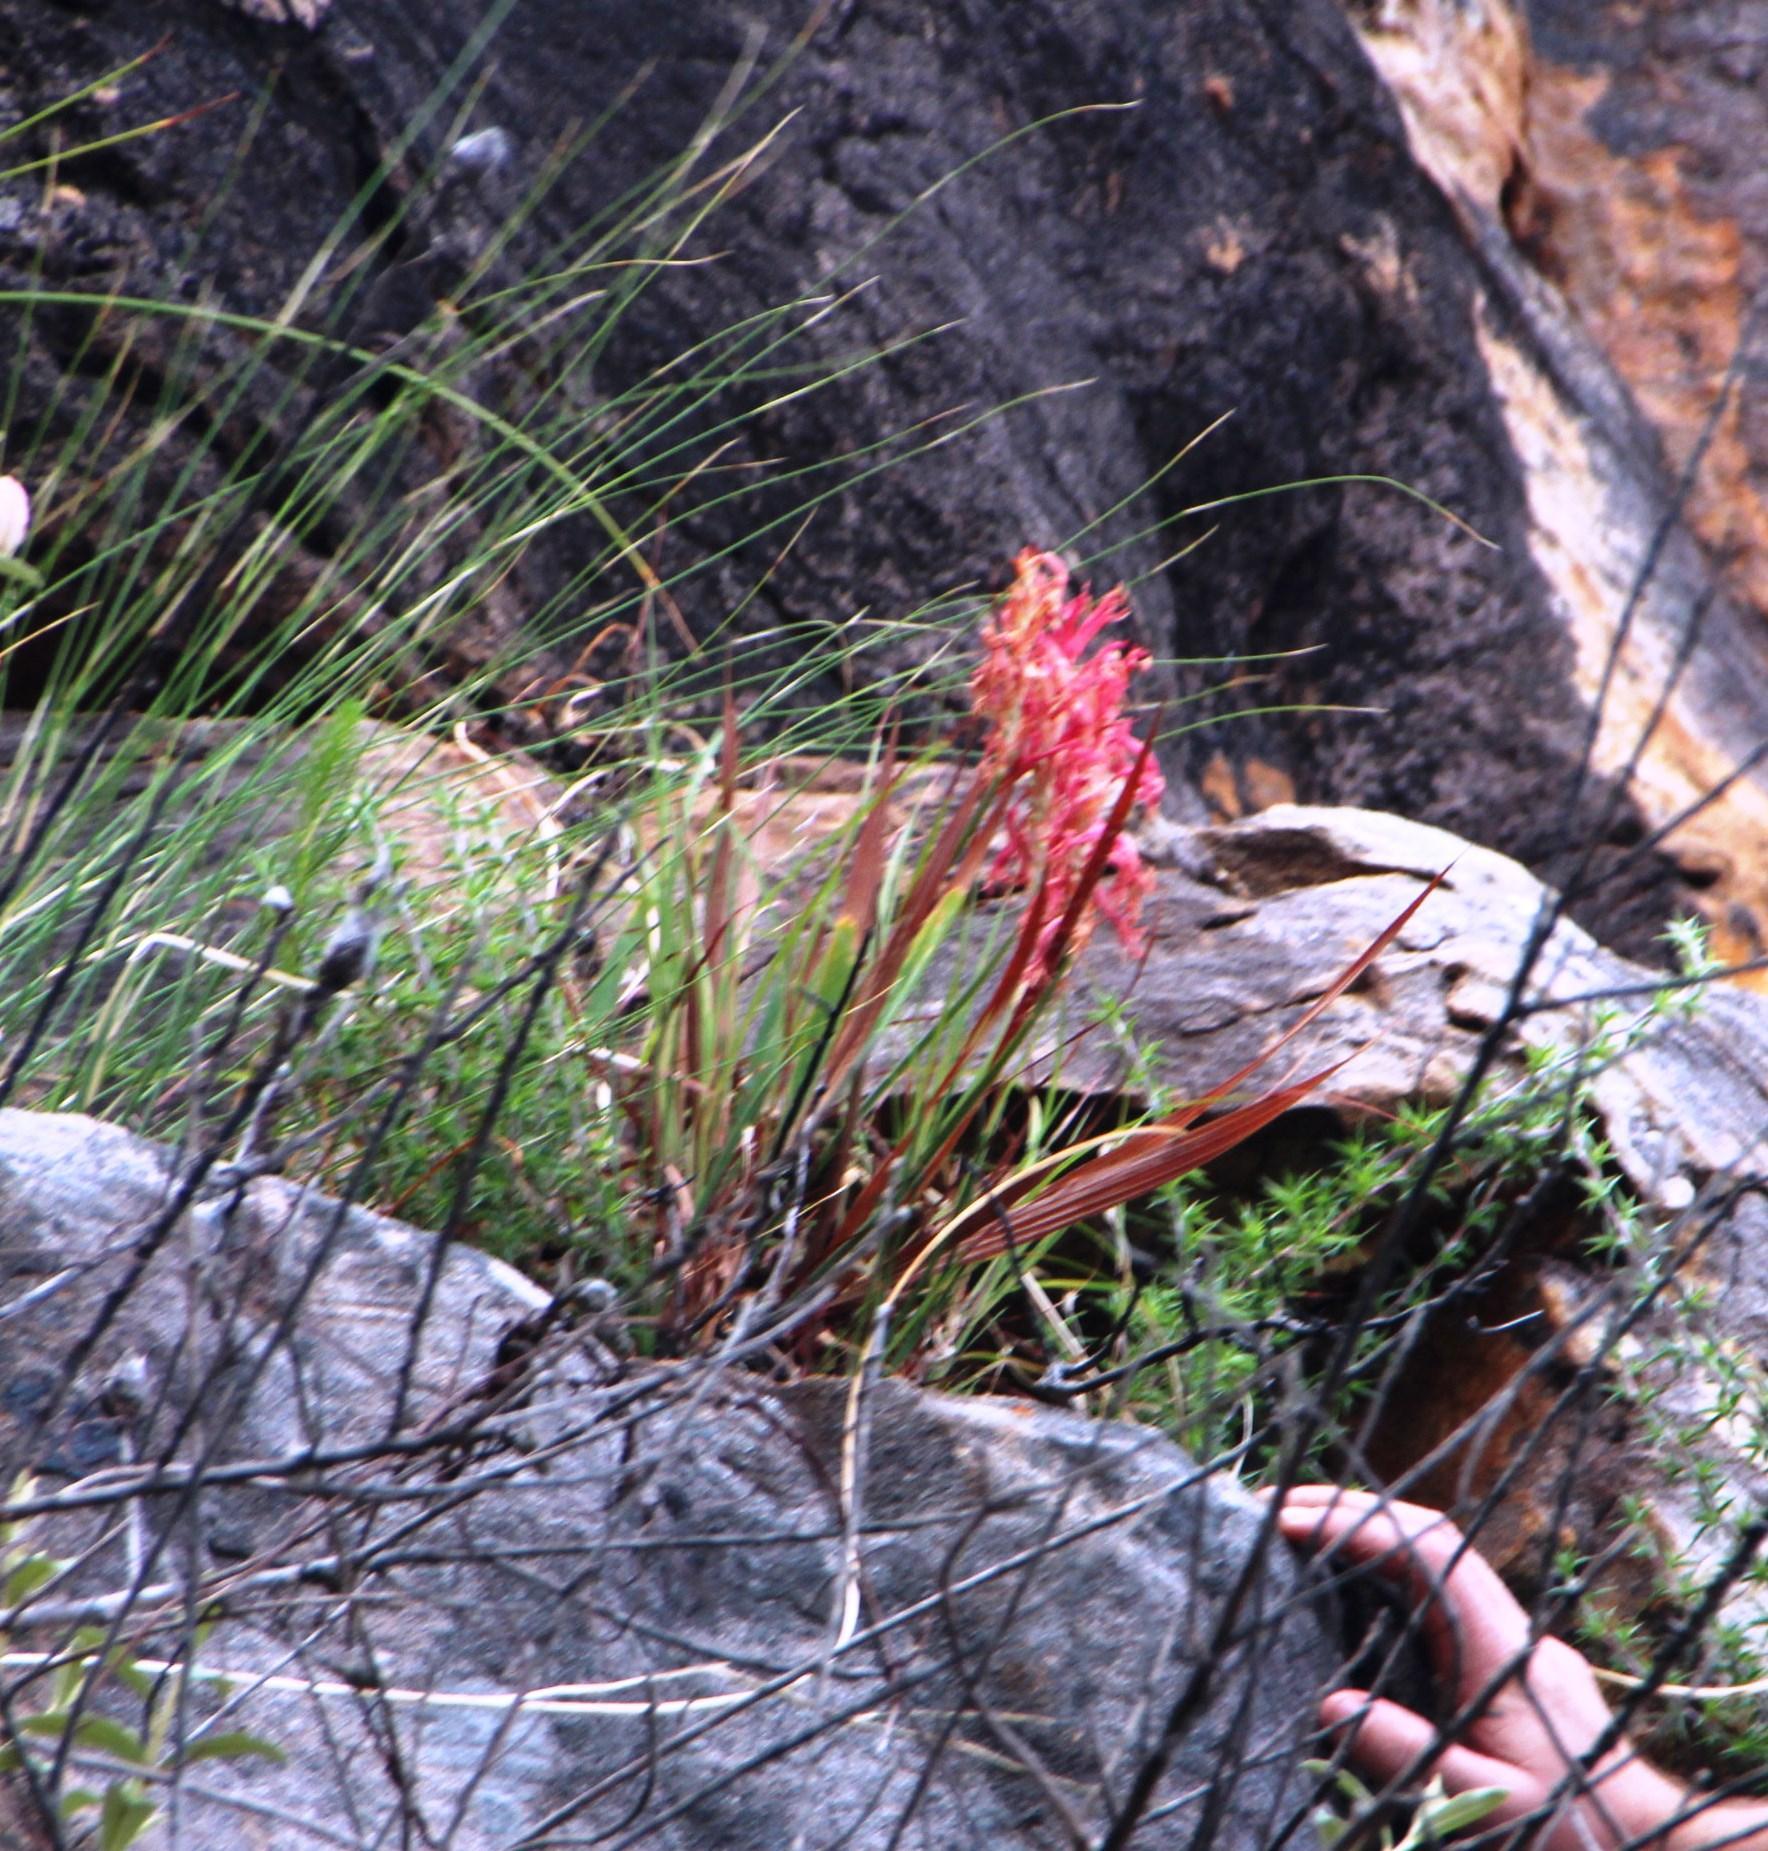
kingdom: Plantae
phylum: Tracheophyta
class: Liliopsida
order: Asparagales
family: Iridaceae
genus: Tritoniopsis
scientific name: Tritoniopsis antholyza
